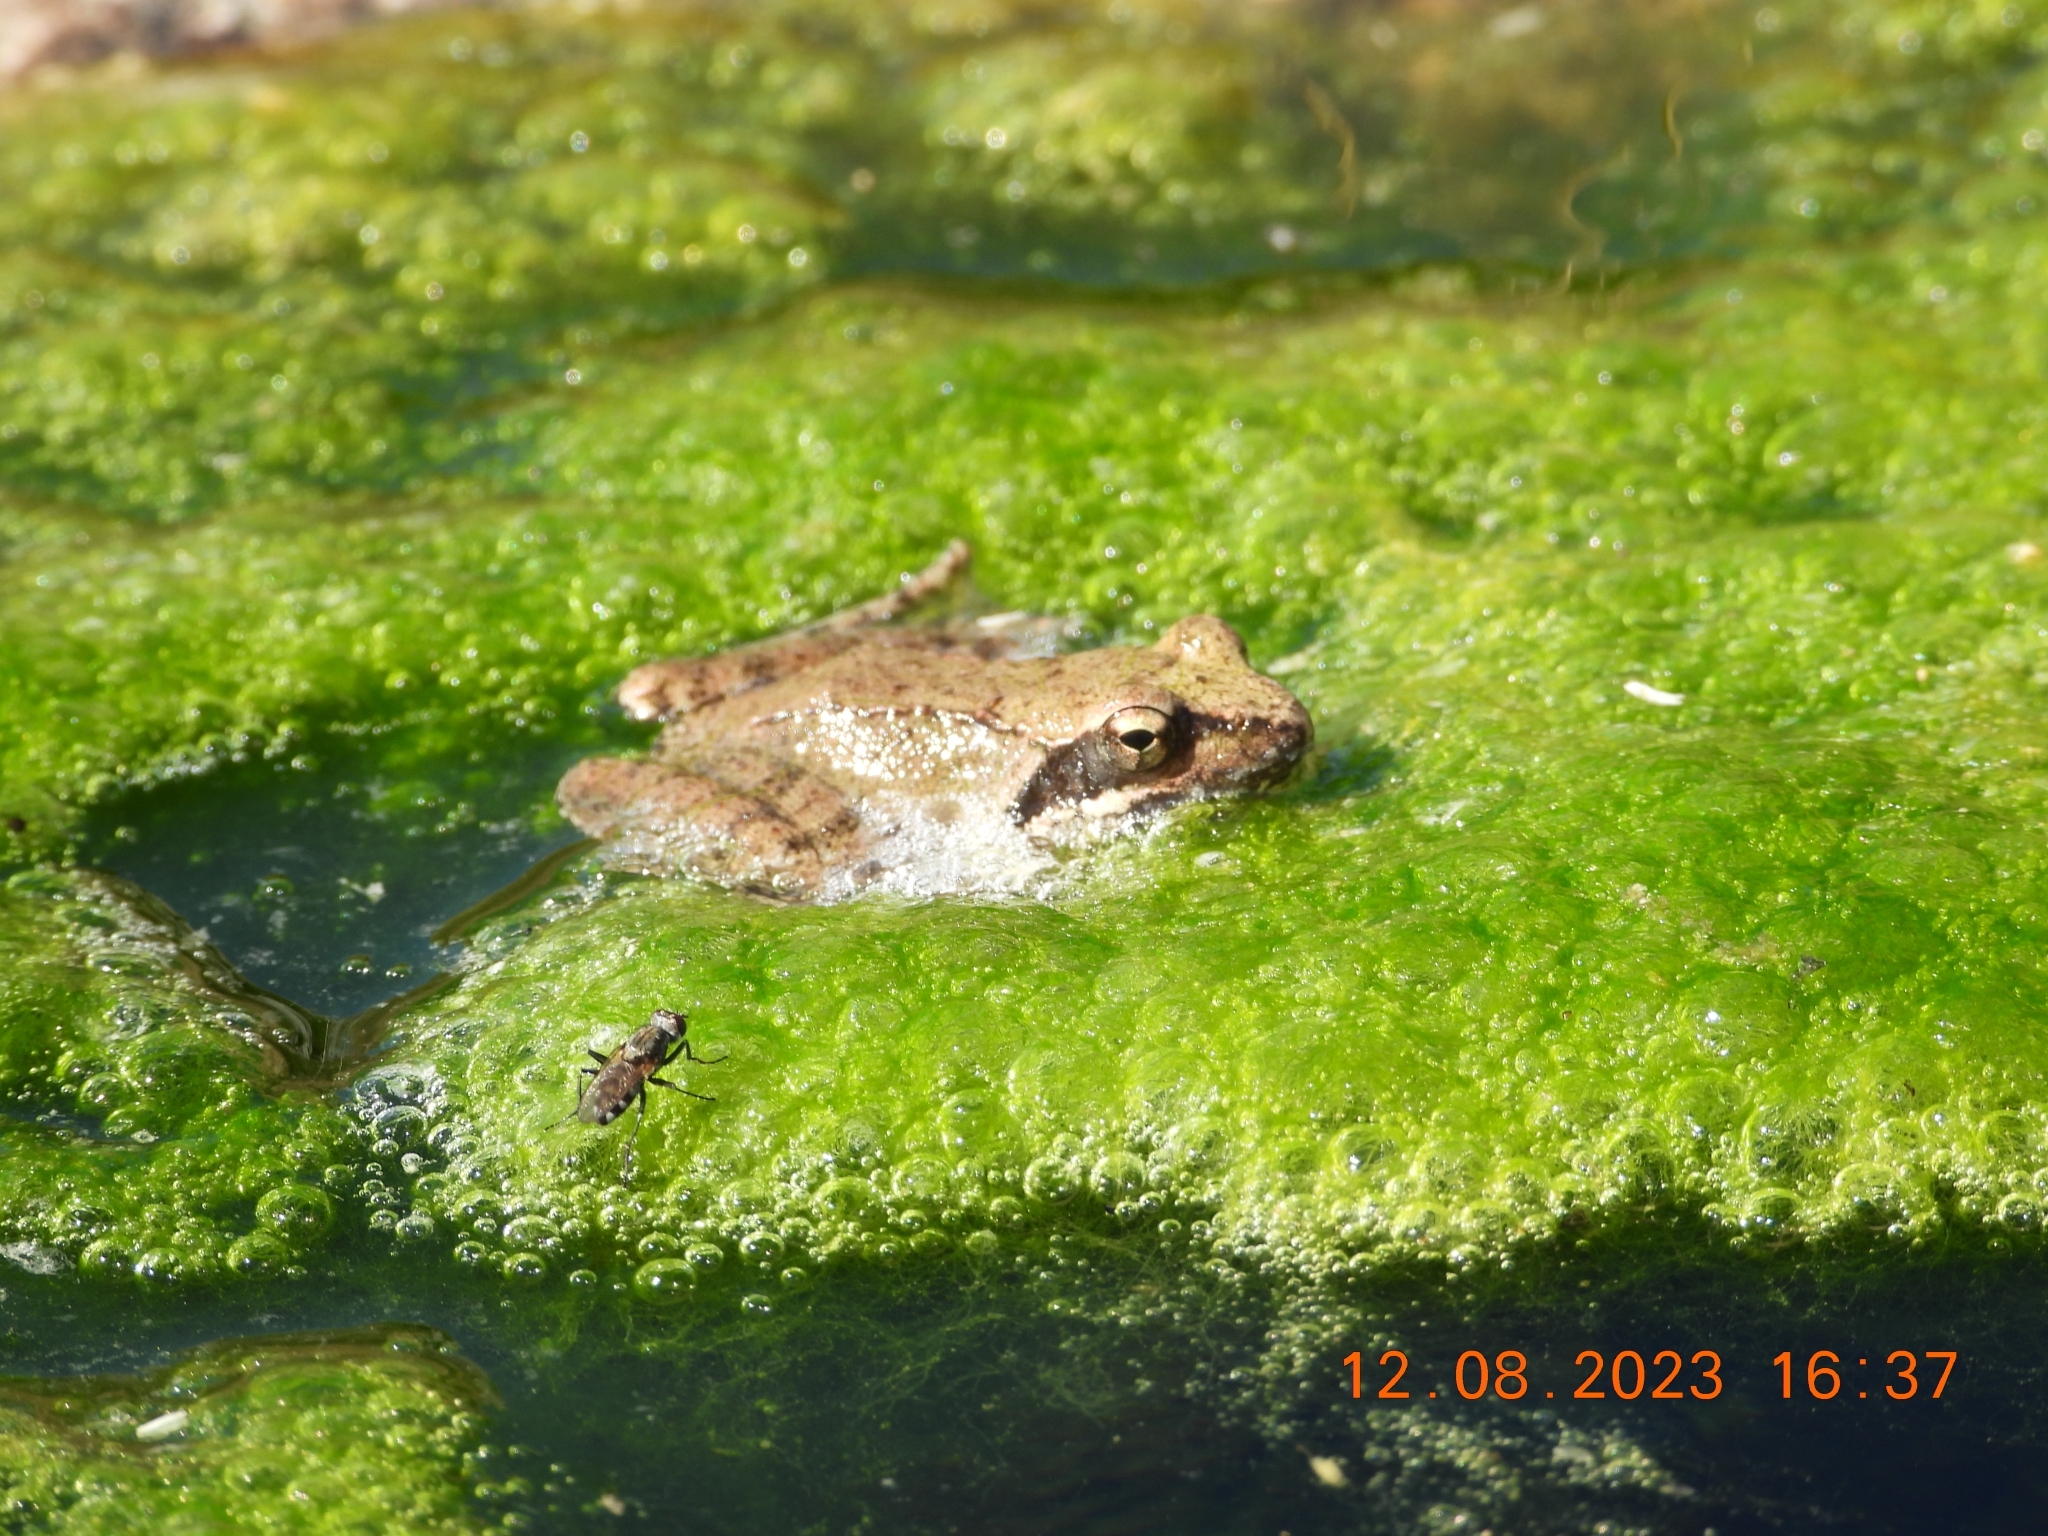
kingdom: Animalia
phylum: Chordata
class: Amphibia
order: Anura
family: Ranidae
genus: Rana
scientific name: Rana italica
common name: Italian stream frog
